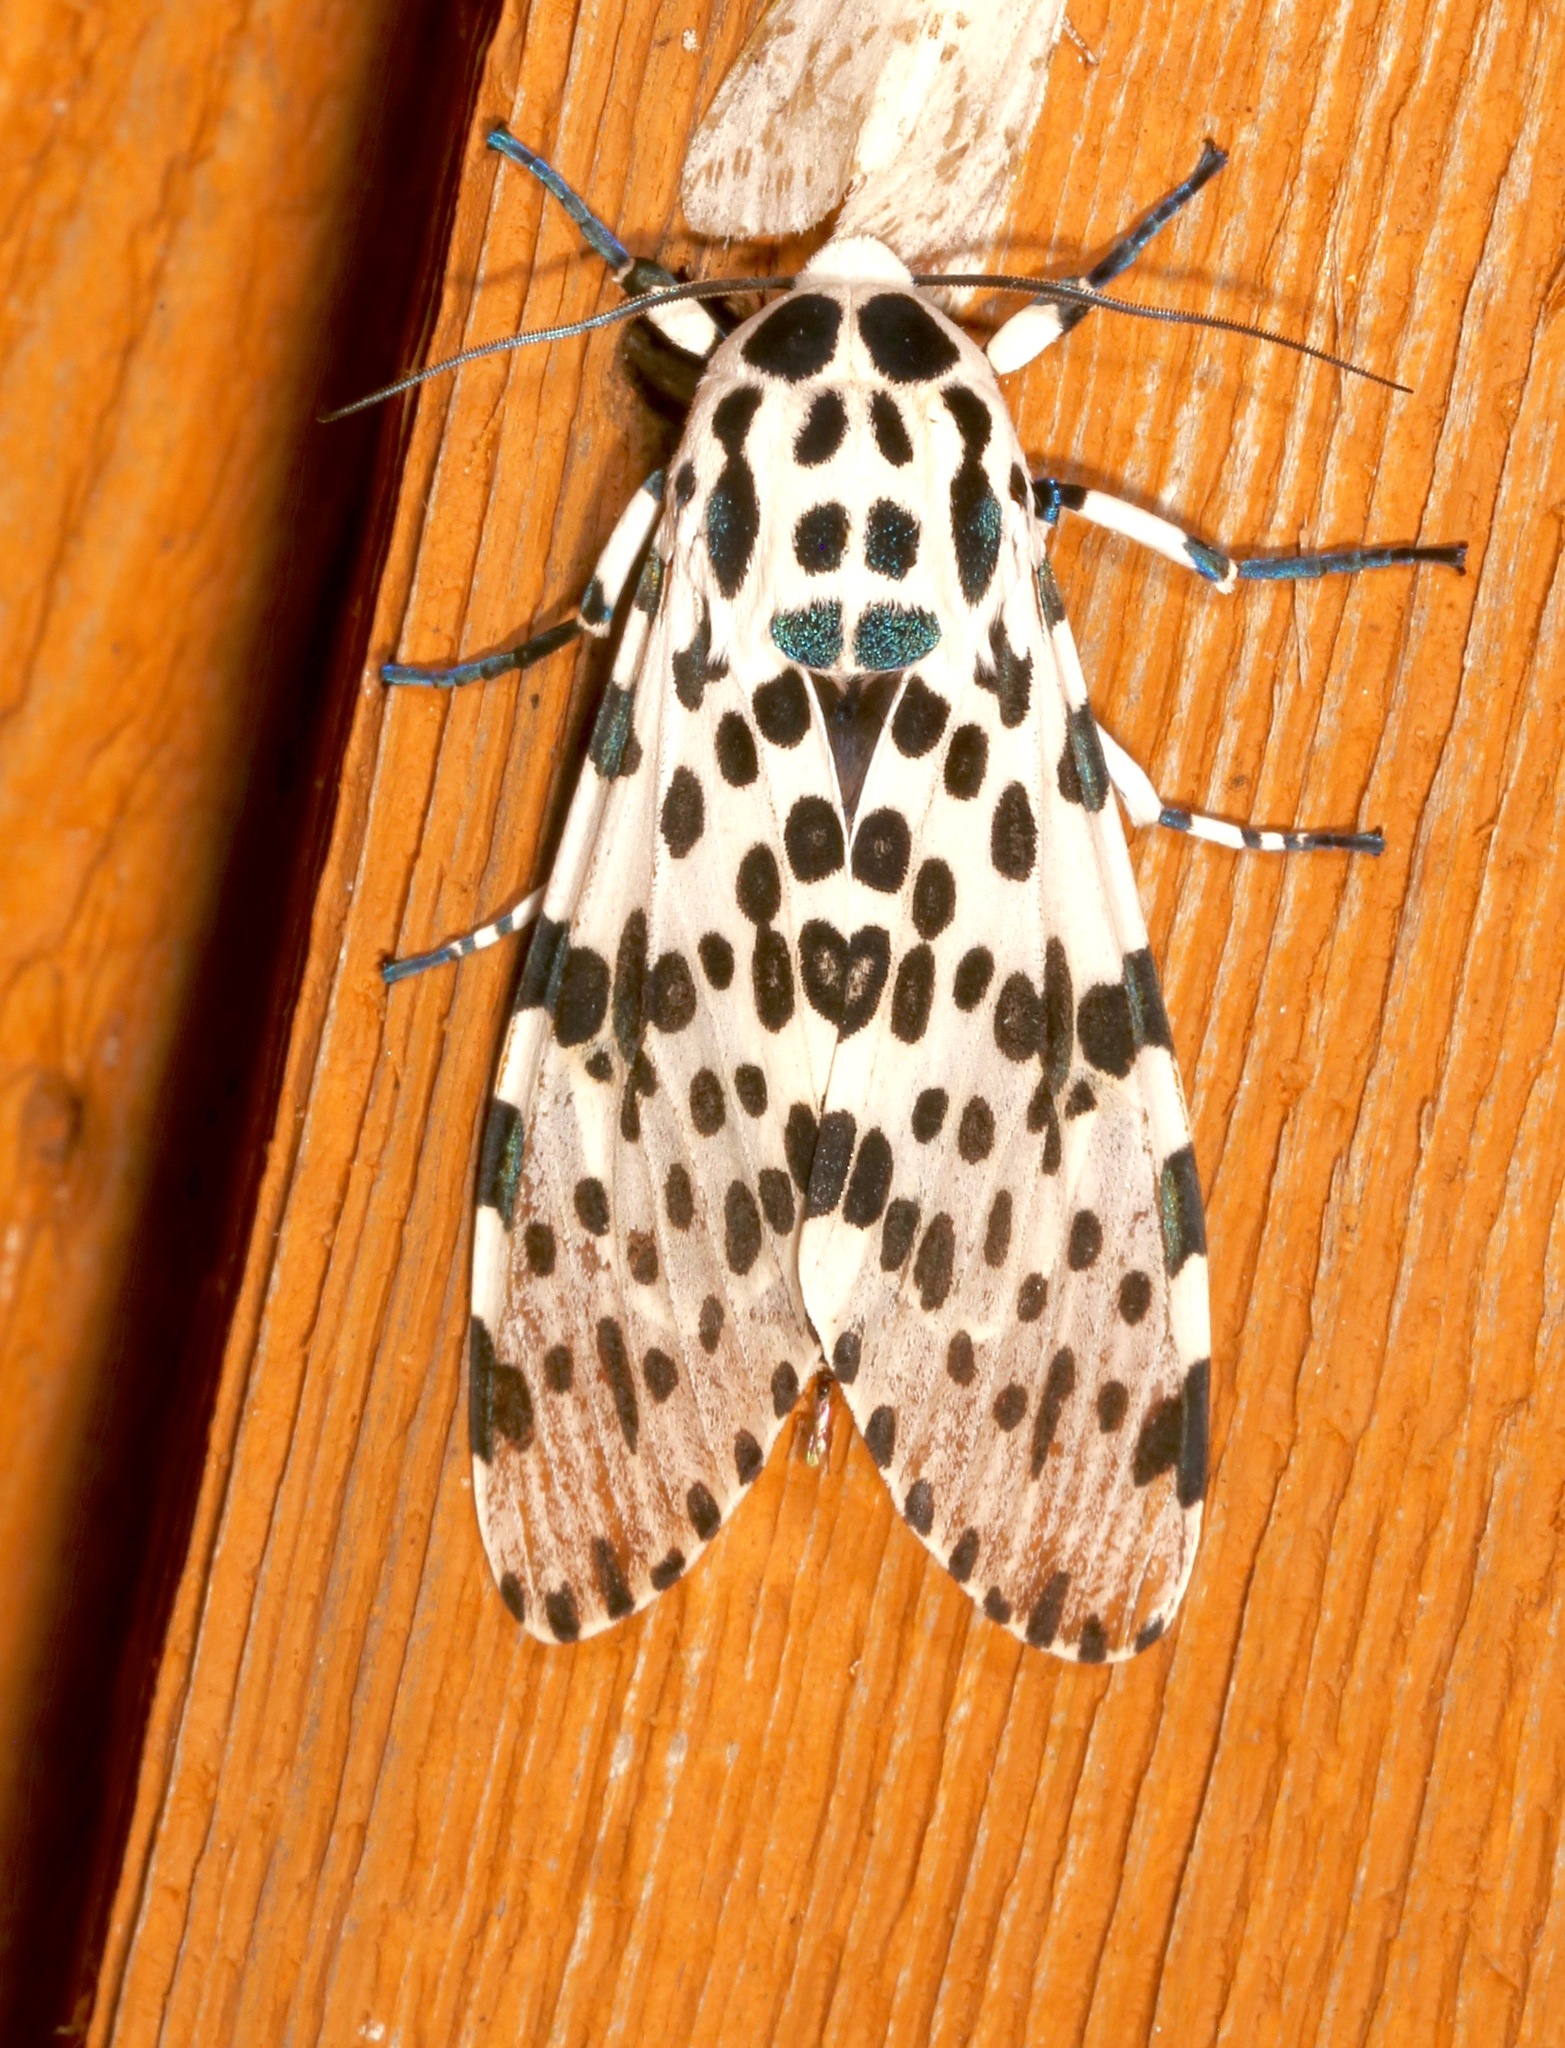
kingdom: Animalia
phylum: Arthropoda
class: Insecta
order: Lepidoptera
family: Erebidae
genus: Hypercompe
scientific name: Hypercompe scribonia
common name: Giant leopard moth
